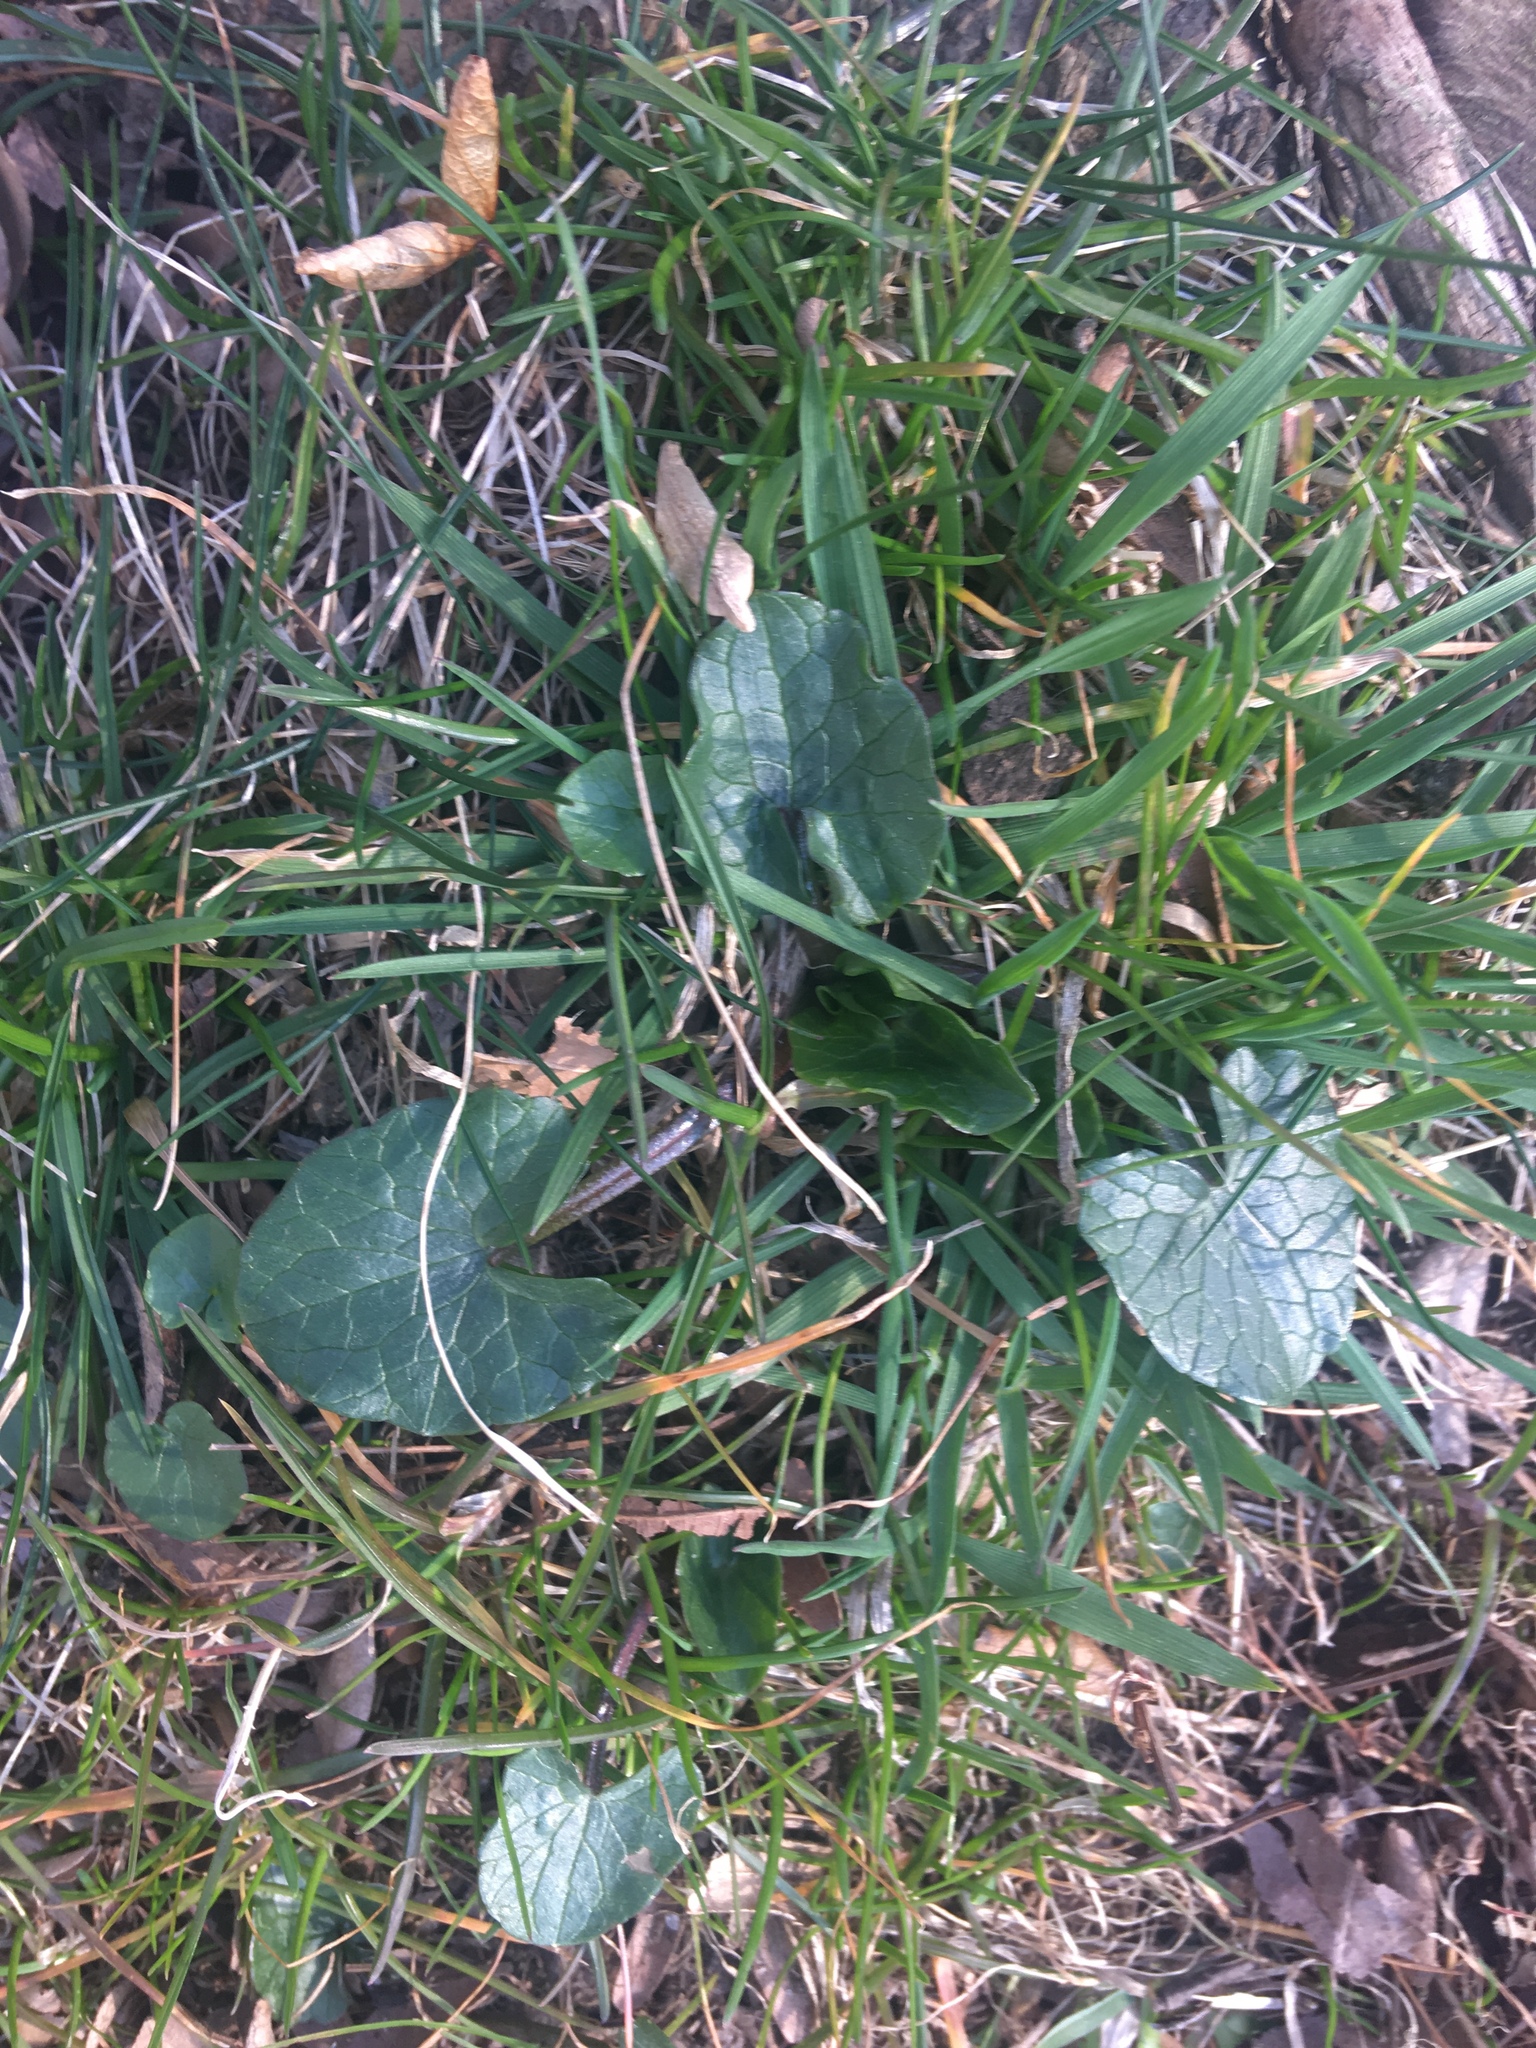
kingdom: Plantae
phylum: Tracheophyta
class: Magnoliopsida
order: Ranunculales
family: Ranunculaceae
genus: Ficaria
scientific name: Ficaria verna
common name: Lesser celandine
